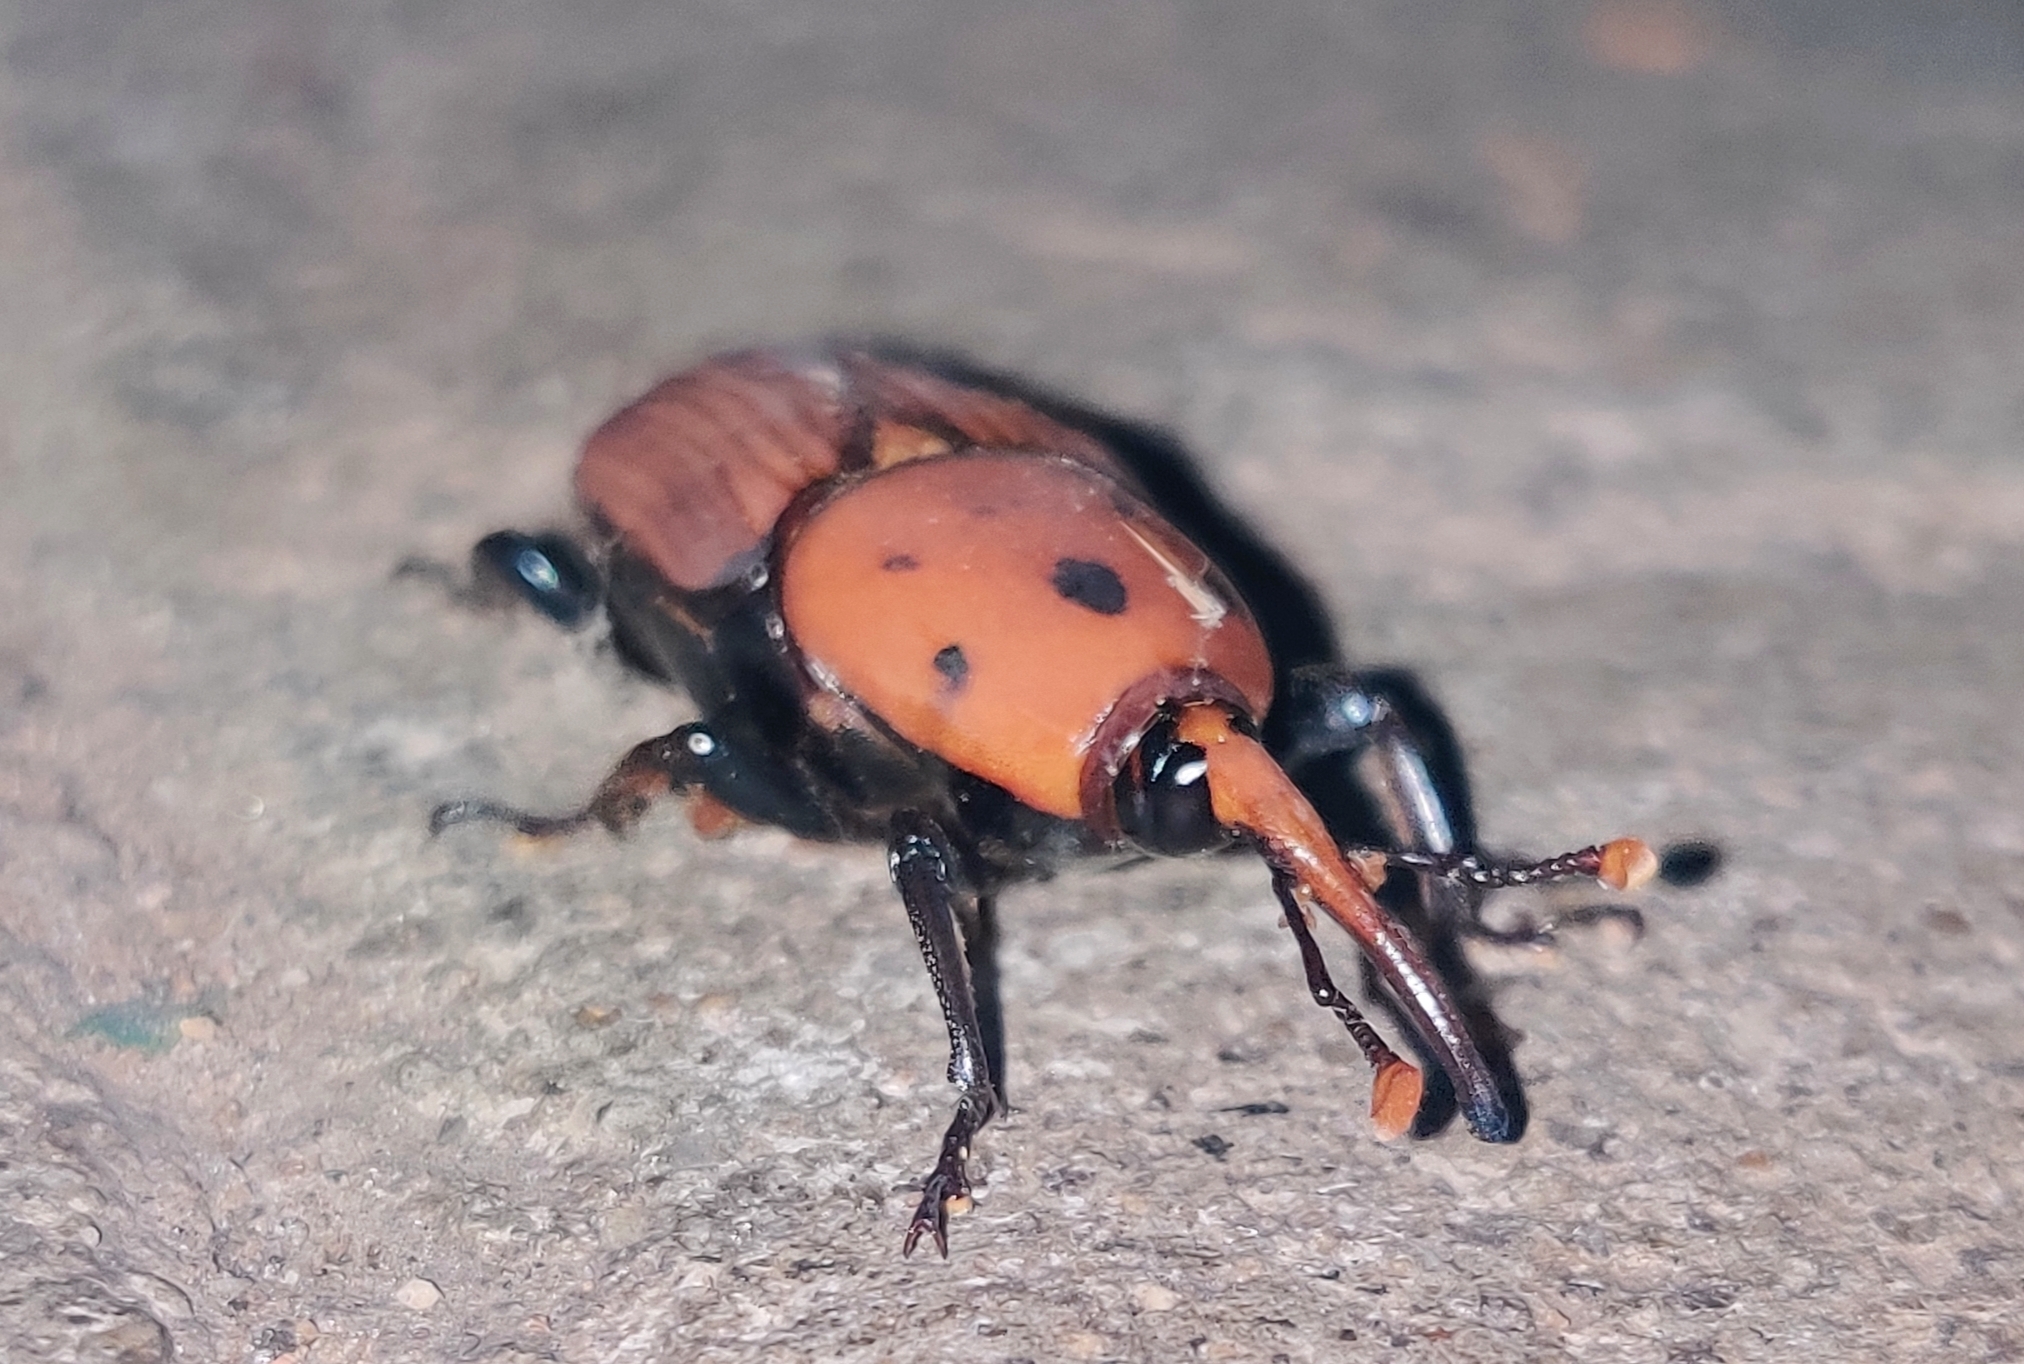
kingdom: Animalia
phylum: Arthropoda
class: Insecta
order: Coleoptera
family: Dryophthoridae
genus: Rhynchophorus
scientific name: Rhynchophorus ferrugineus
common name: Red palm weevil
